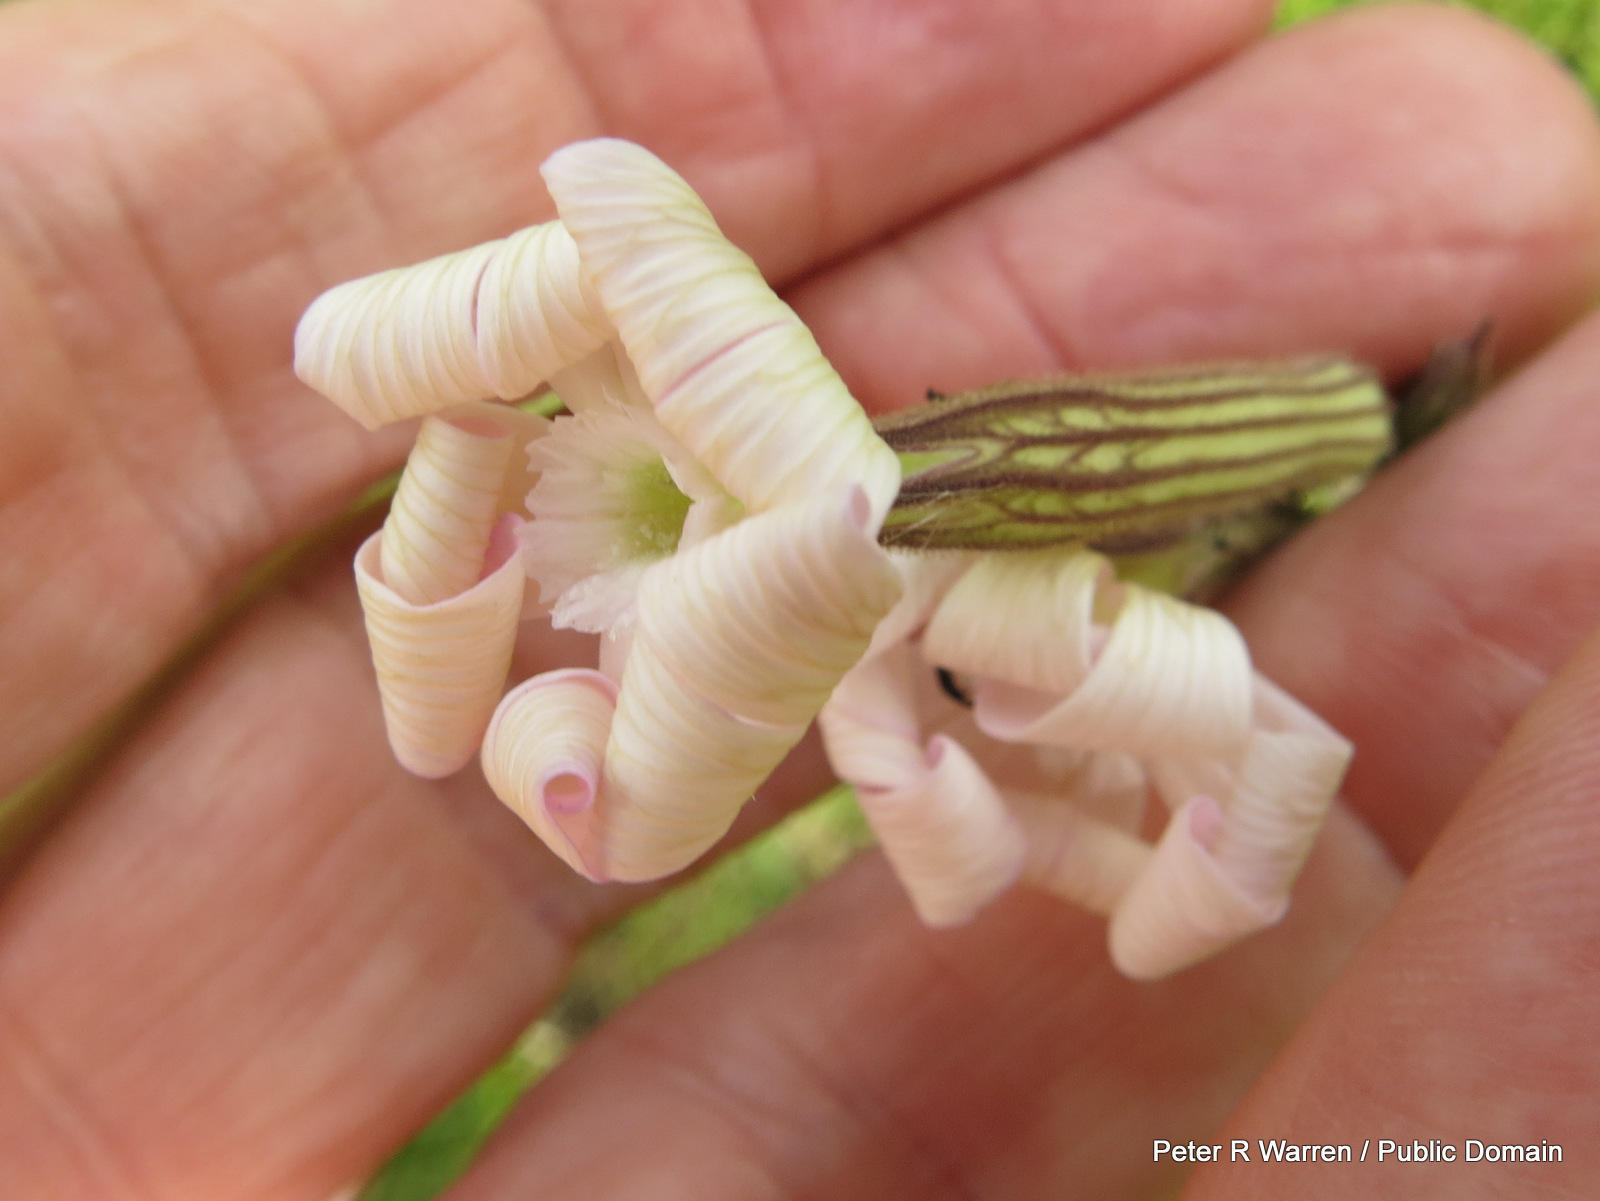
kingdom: Plantae
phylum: Tracheophyta
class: Magnoliopsida
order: Caryophyllales
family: Caryophyllaceae
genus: Silene
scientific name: Silene undulata
